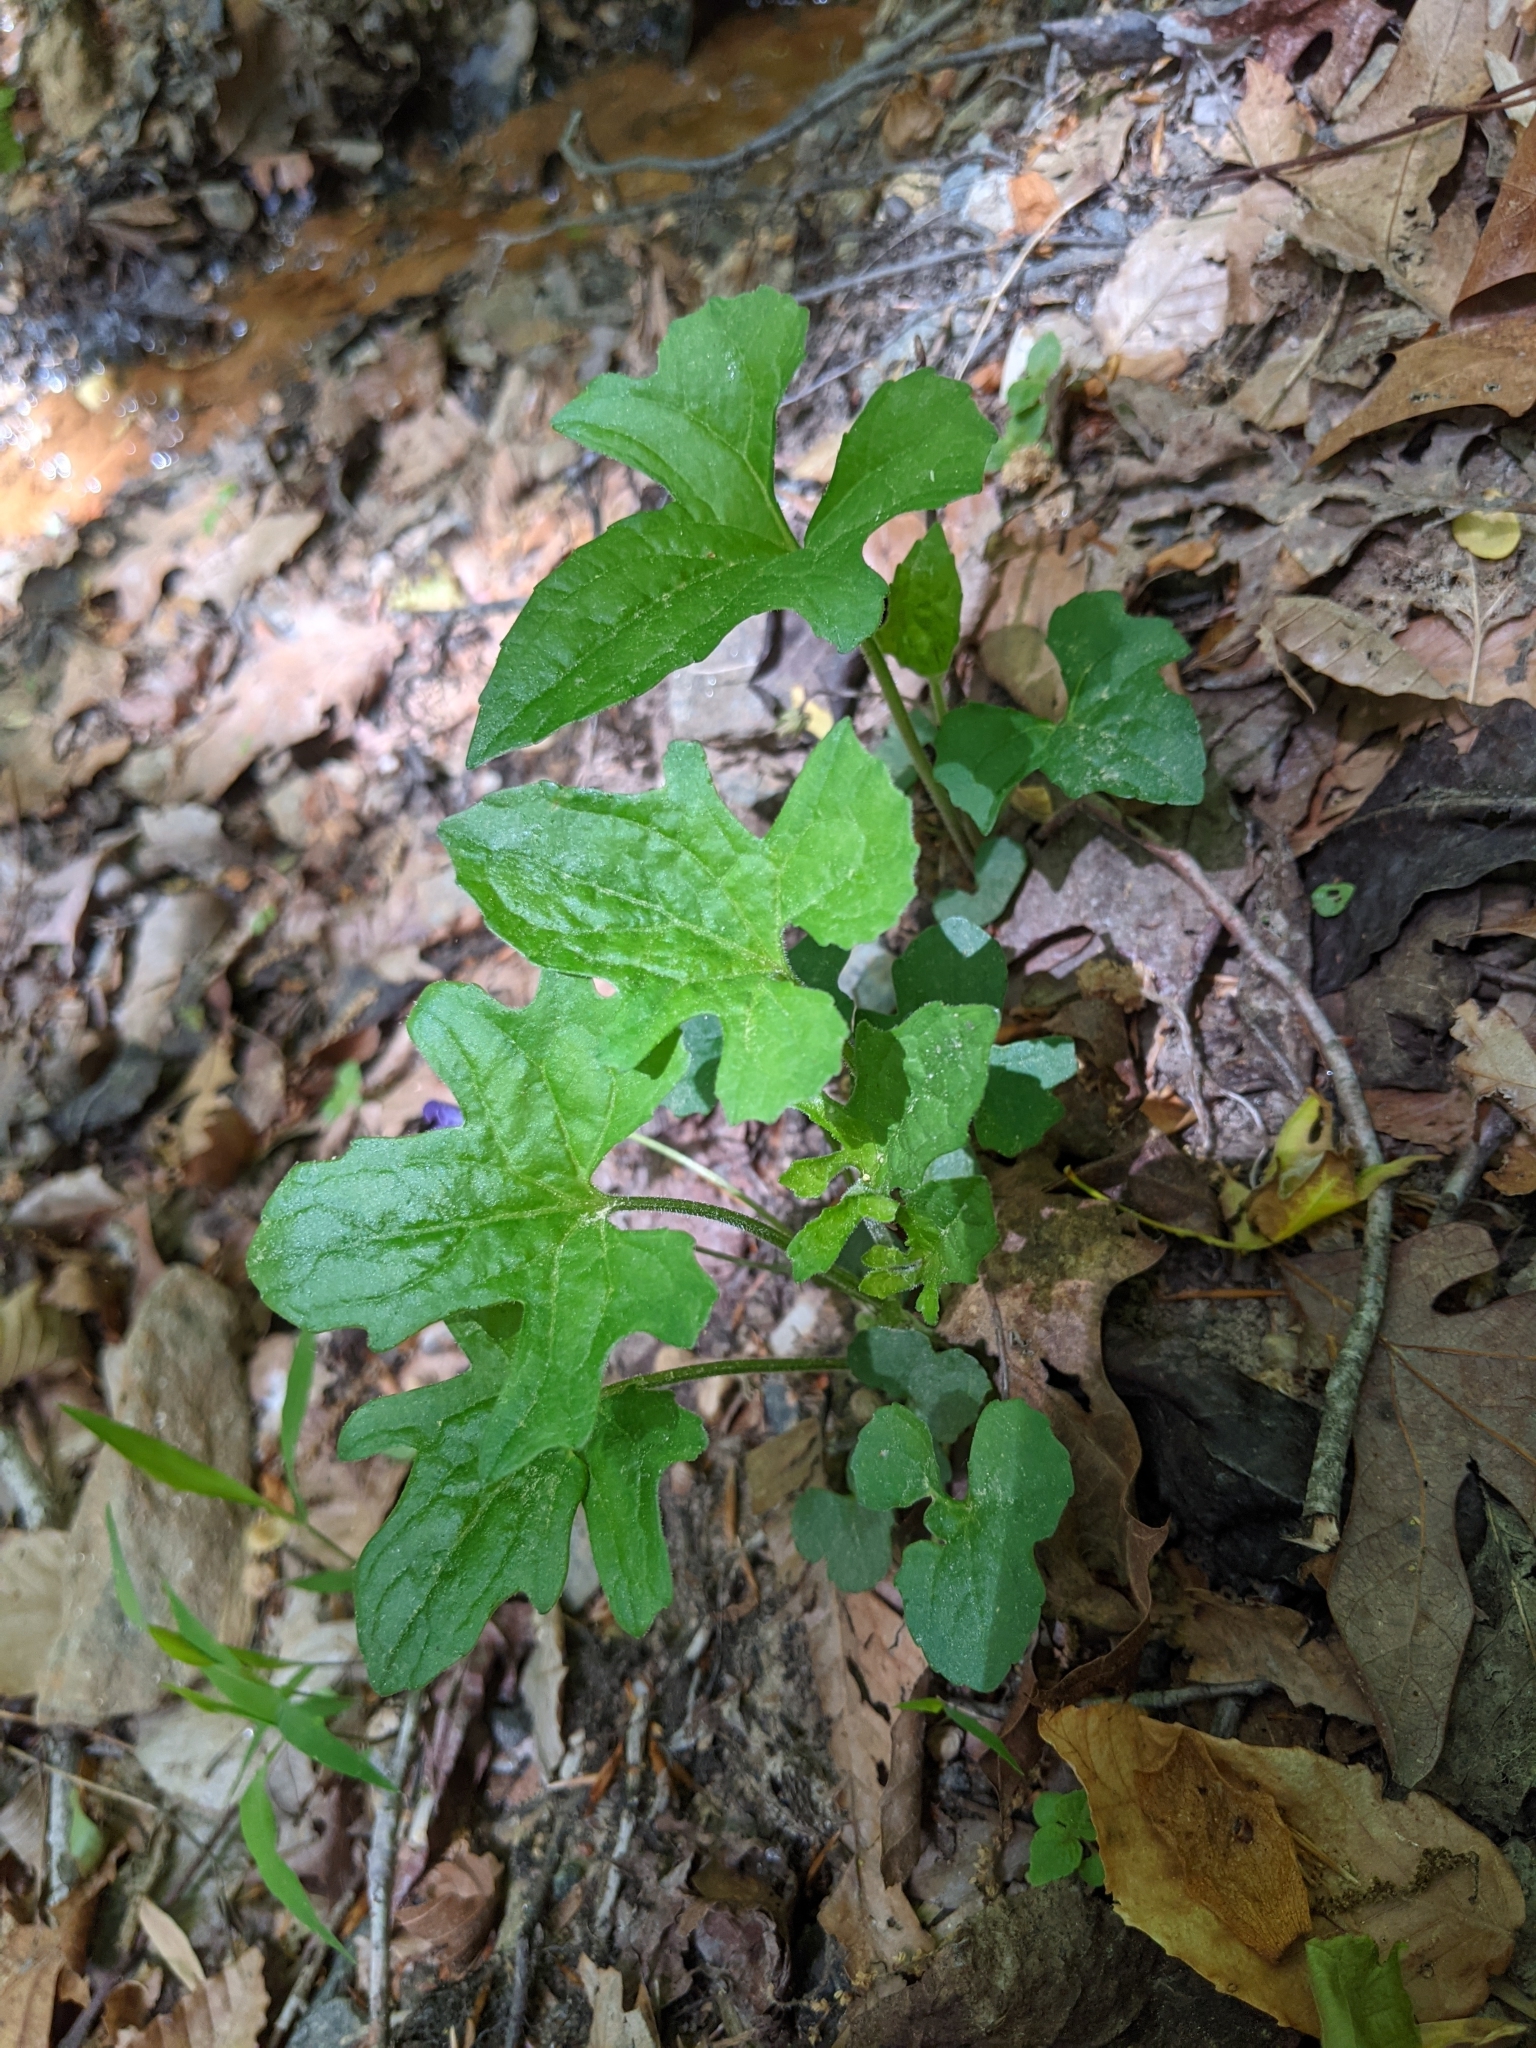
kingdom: Plantae
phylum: Tracheophyta
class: Magnoliopsida
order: Malpighiales
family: Violaceae
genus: Viola
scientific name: Viola palmata
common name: Early blue violet
